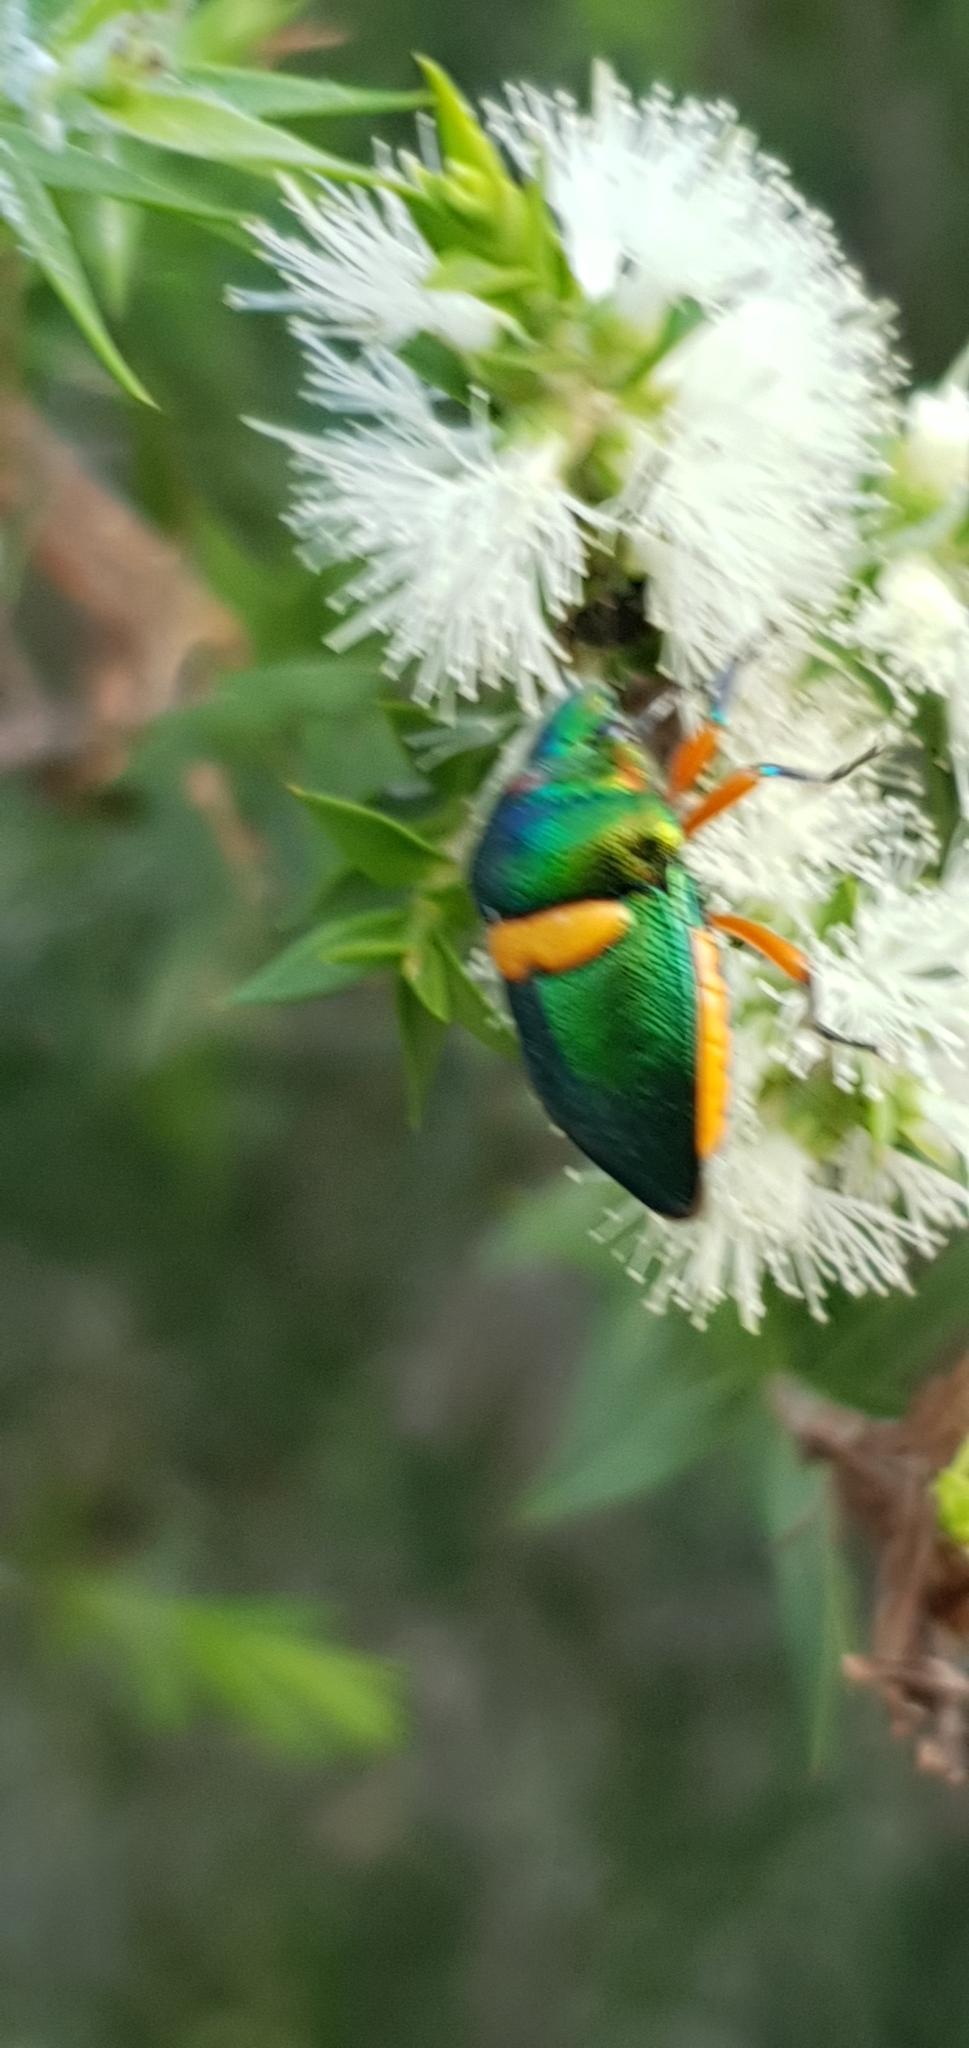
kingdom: Animalia
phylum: Arthropoda
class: Insecta
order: Hemiptera
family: Scutelleridae
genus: Lampromicra
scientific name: Lampromicra senator
